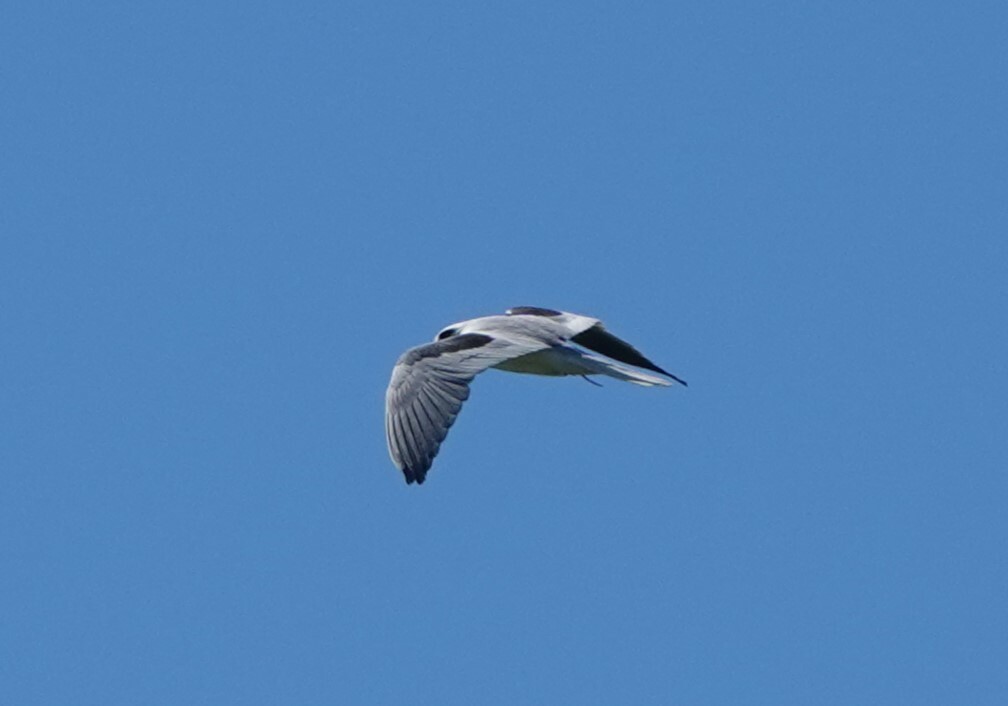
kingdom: Animalia
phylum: Chordata
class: Aves
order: Accipitriformes
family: Accipitridae
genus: Elanus
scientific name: Elanus leucurus
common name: White-tailed kite
